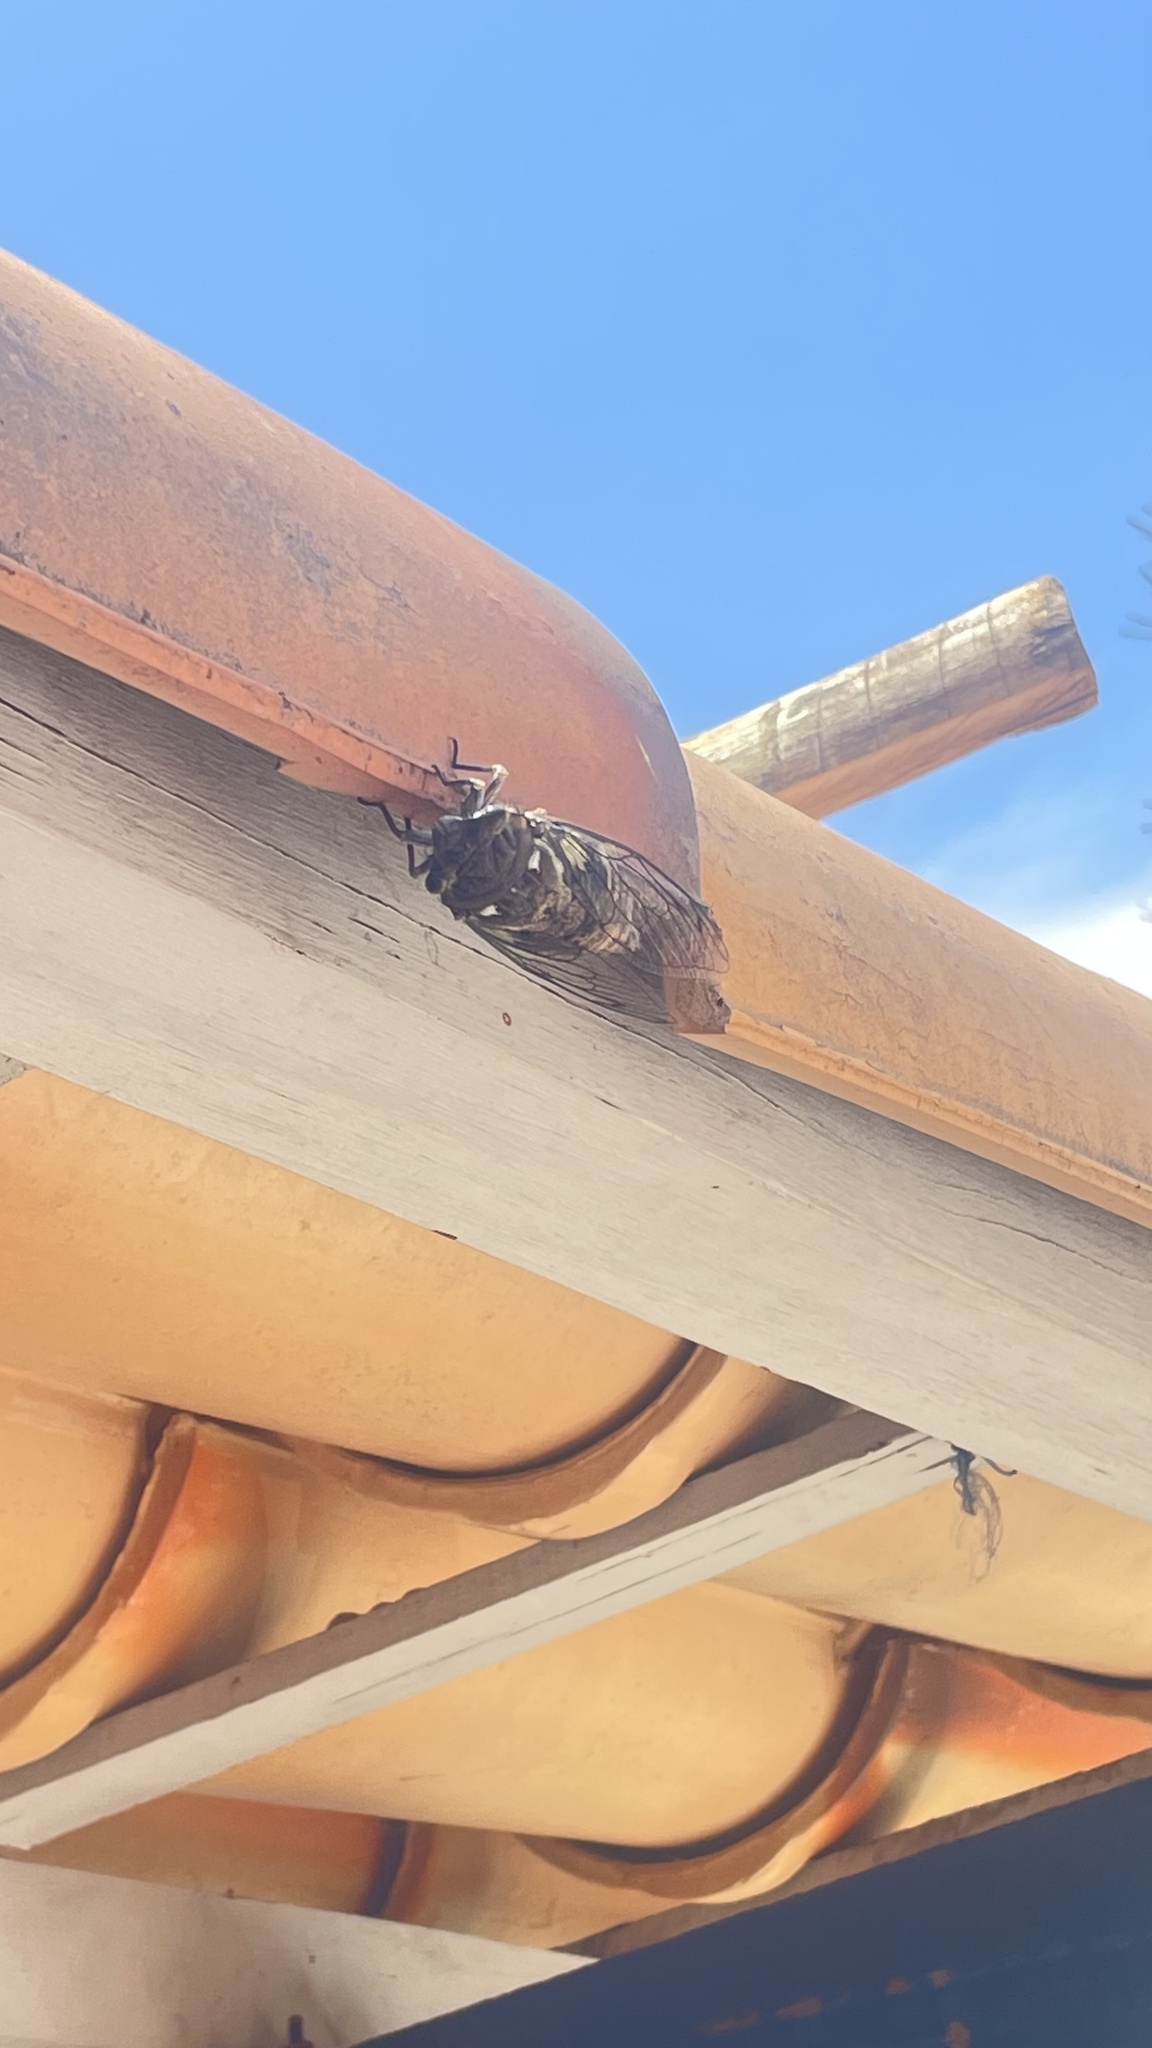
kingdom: Animalia
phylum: Arthropoda
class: Insecta
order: Hemiptera
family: Cicadidae
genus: Quesada
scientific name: Quesada gigas
